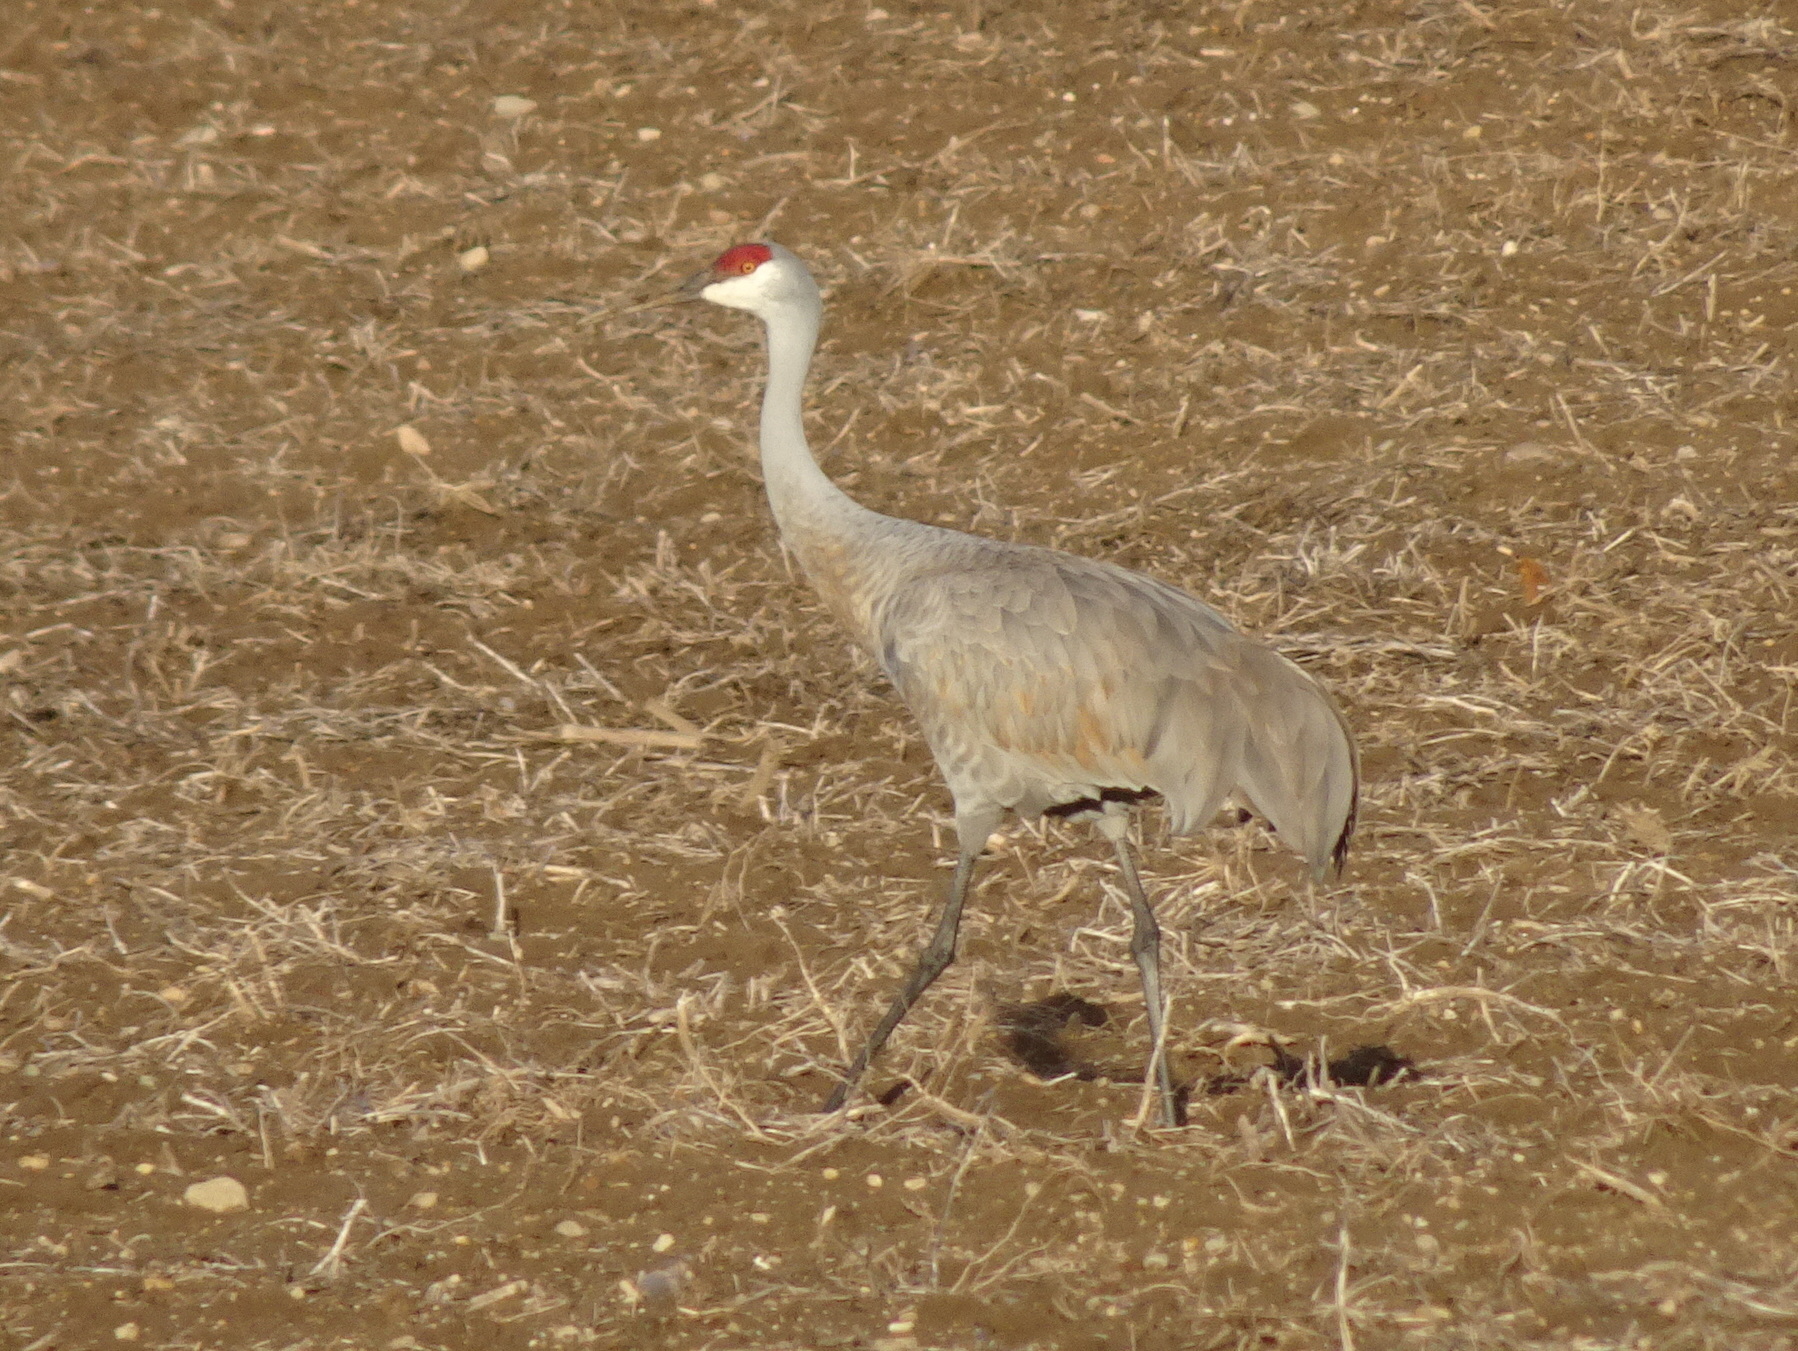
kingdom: Animalia
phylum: Chordata
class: Aves
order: Gruiformes
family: Gruidae
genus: Grus
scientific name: Grus canadensis
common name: Sandhill crane
